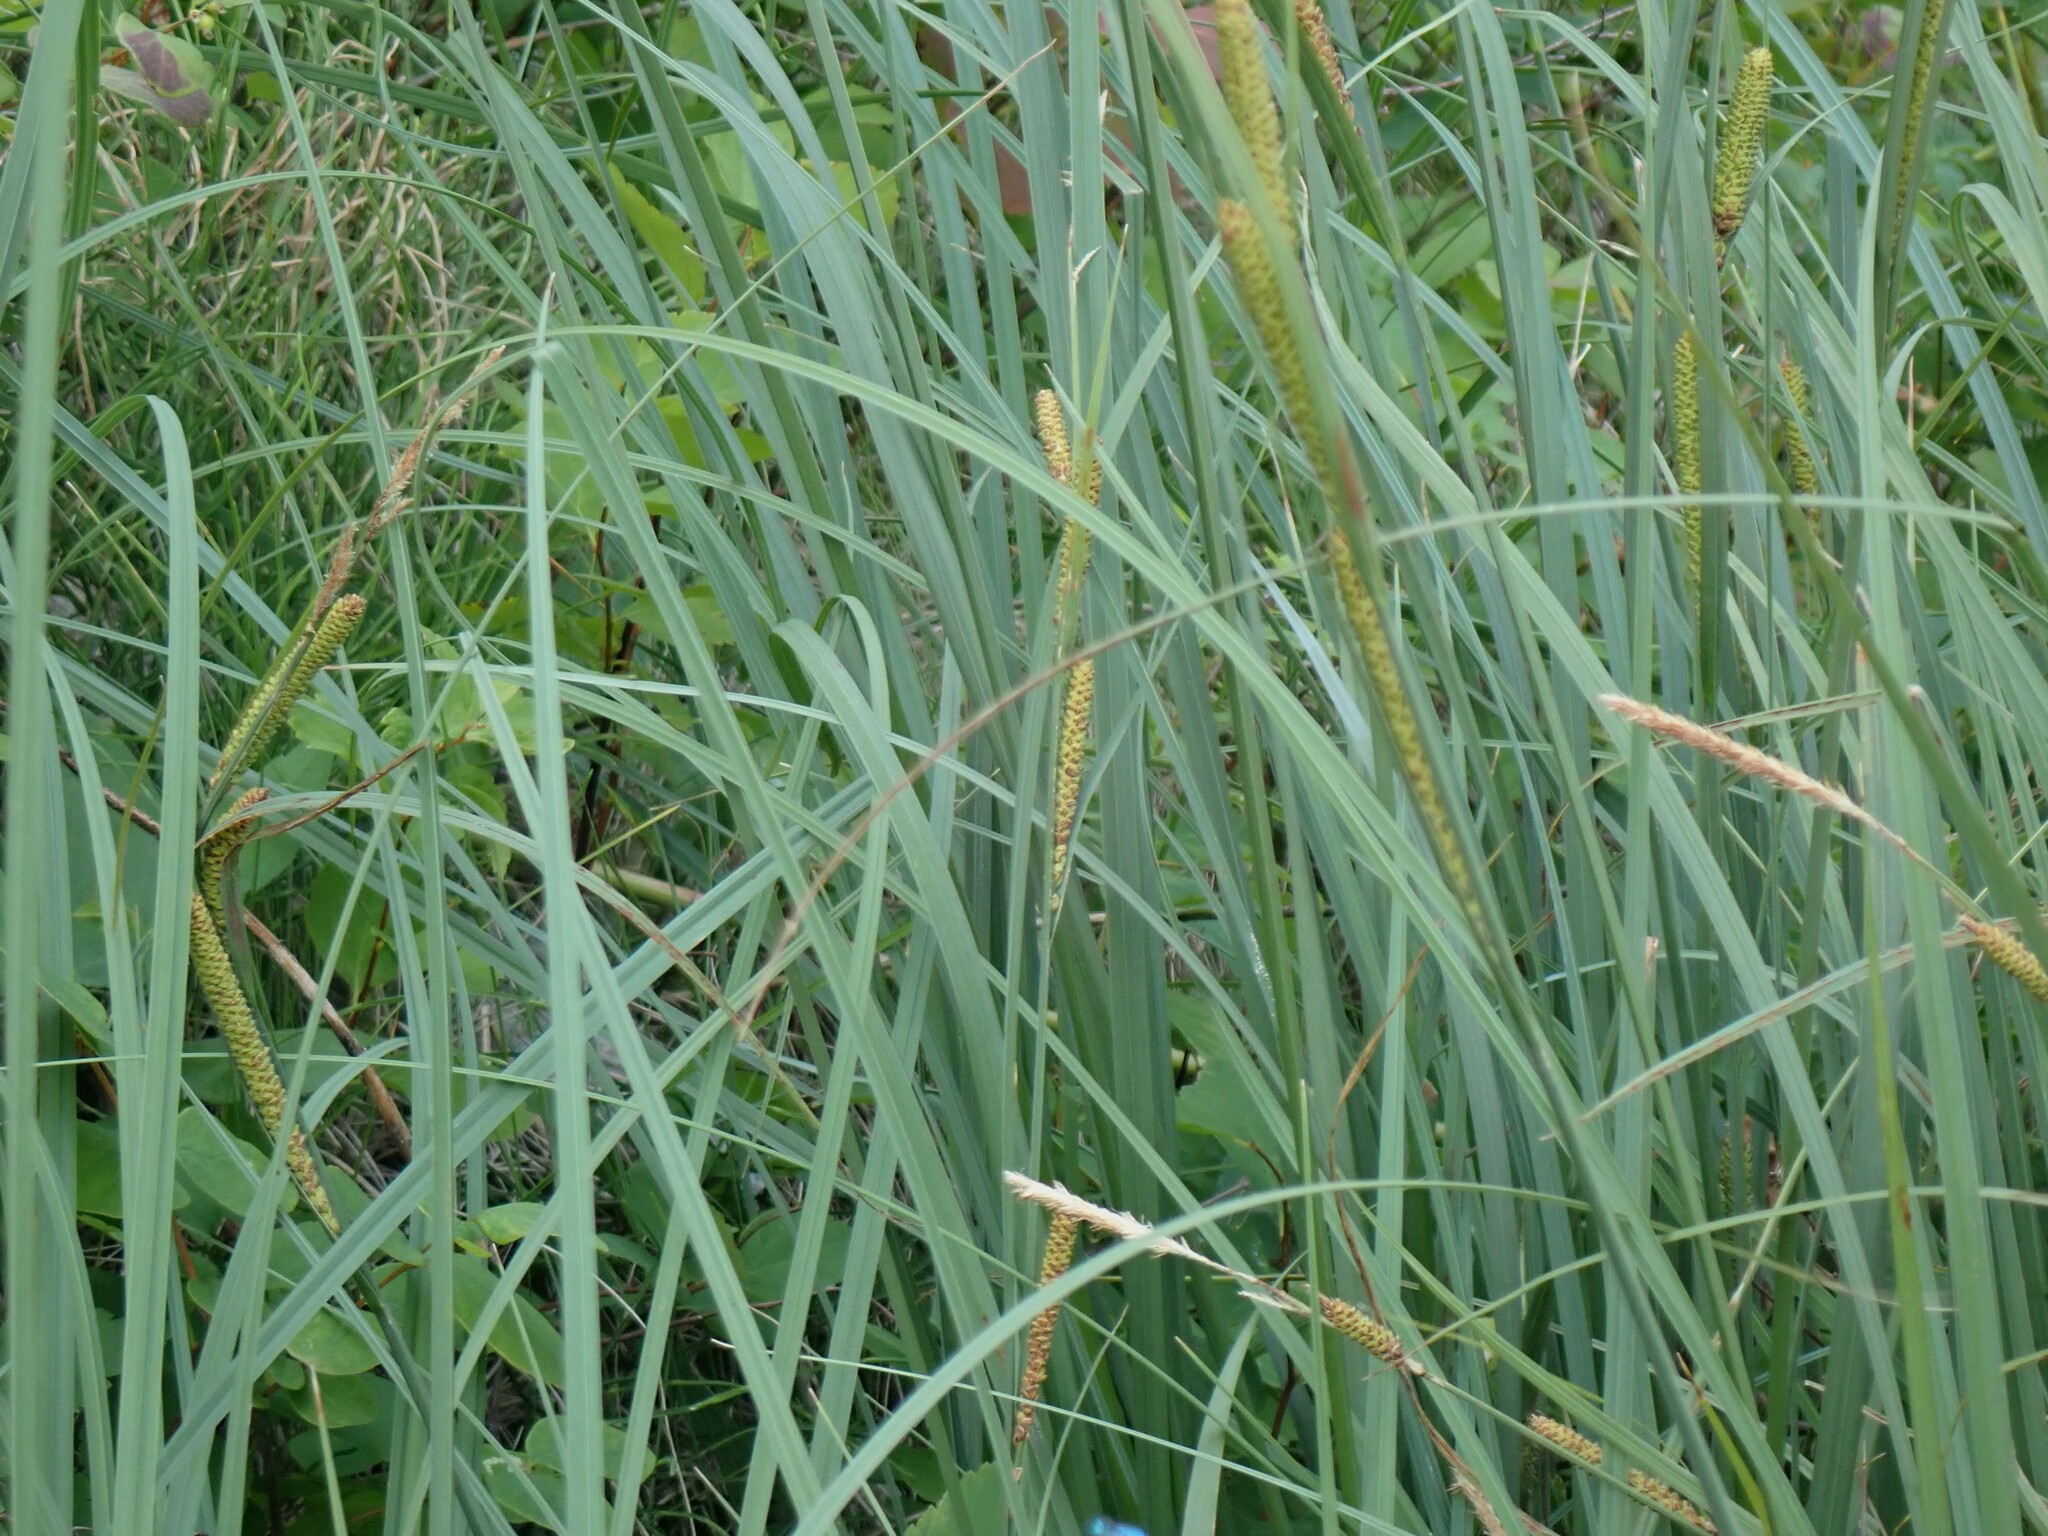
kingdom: Plantae
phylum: Tracheophyta
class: Liliopsida
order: Poales
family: Cyperaceae
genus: Carex
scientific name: Carex aquatilis
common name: Water sedge
